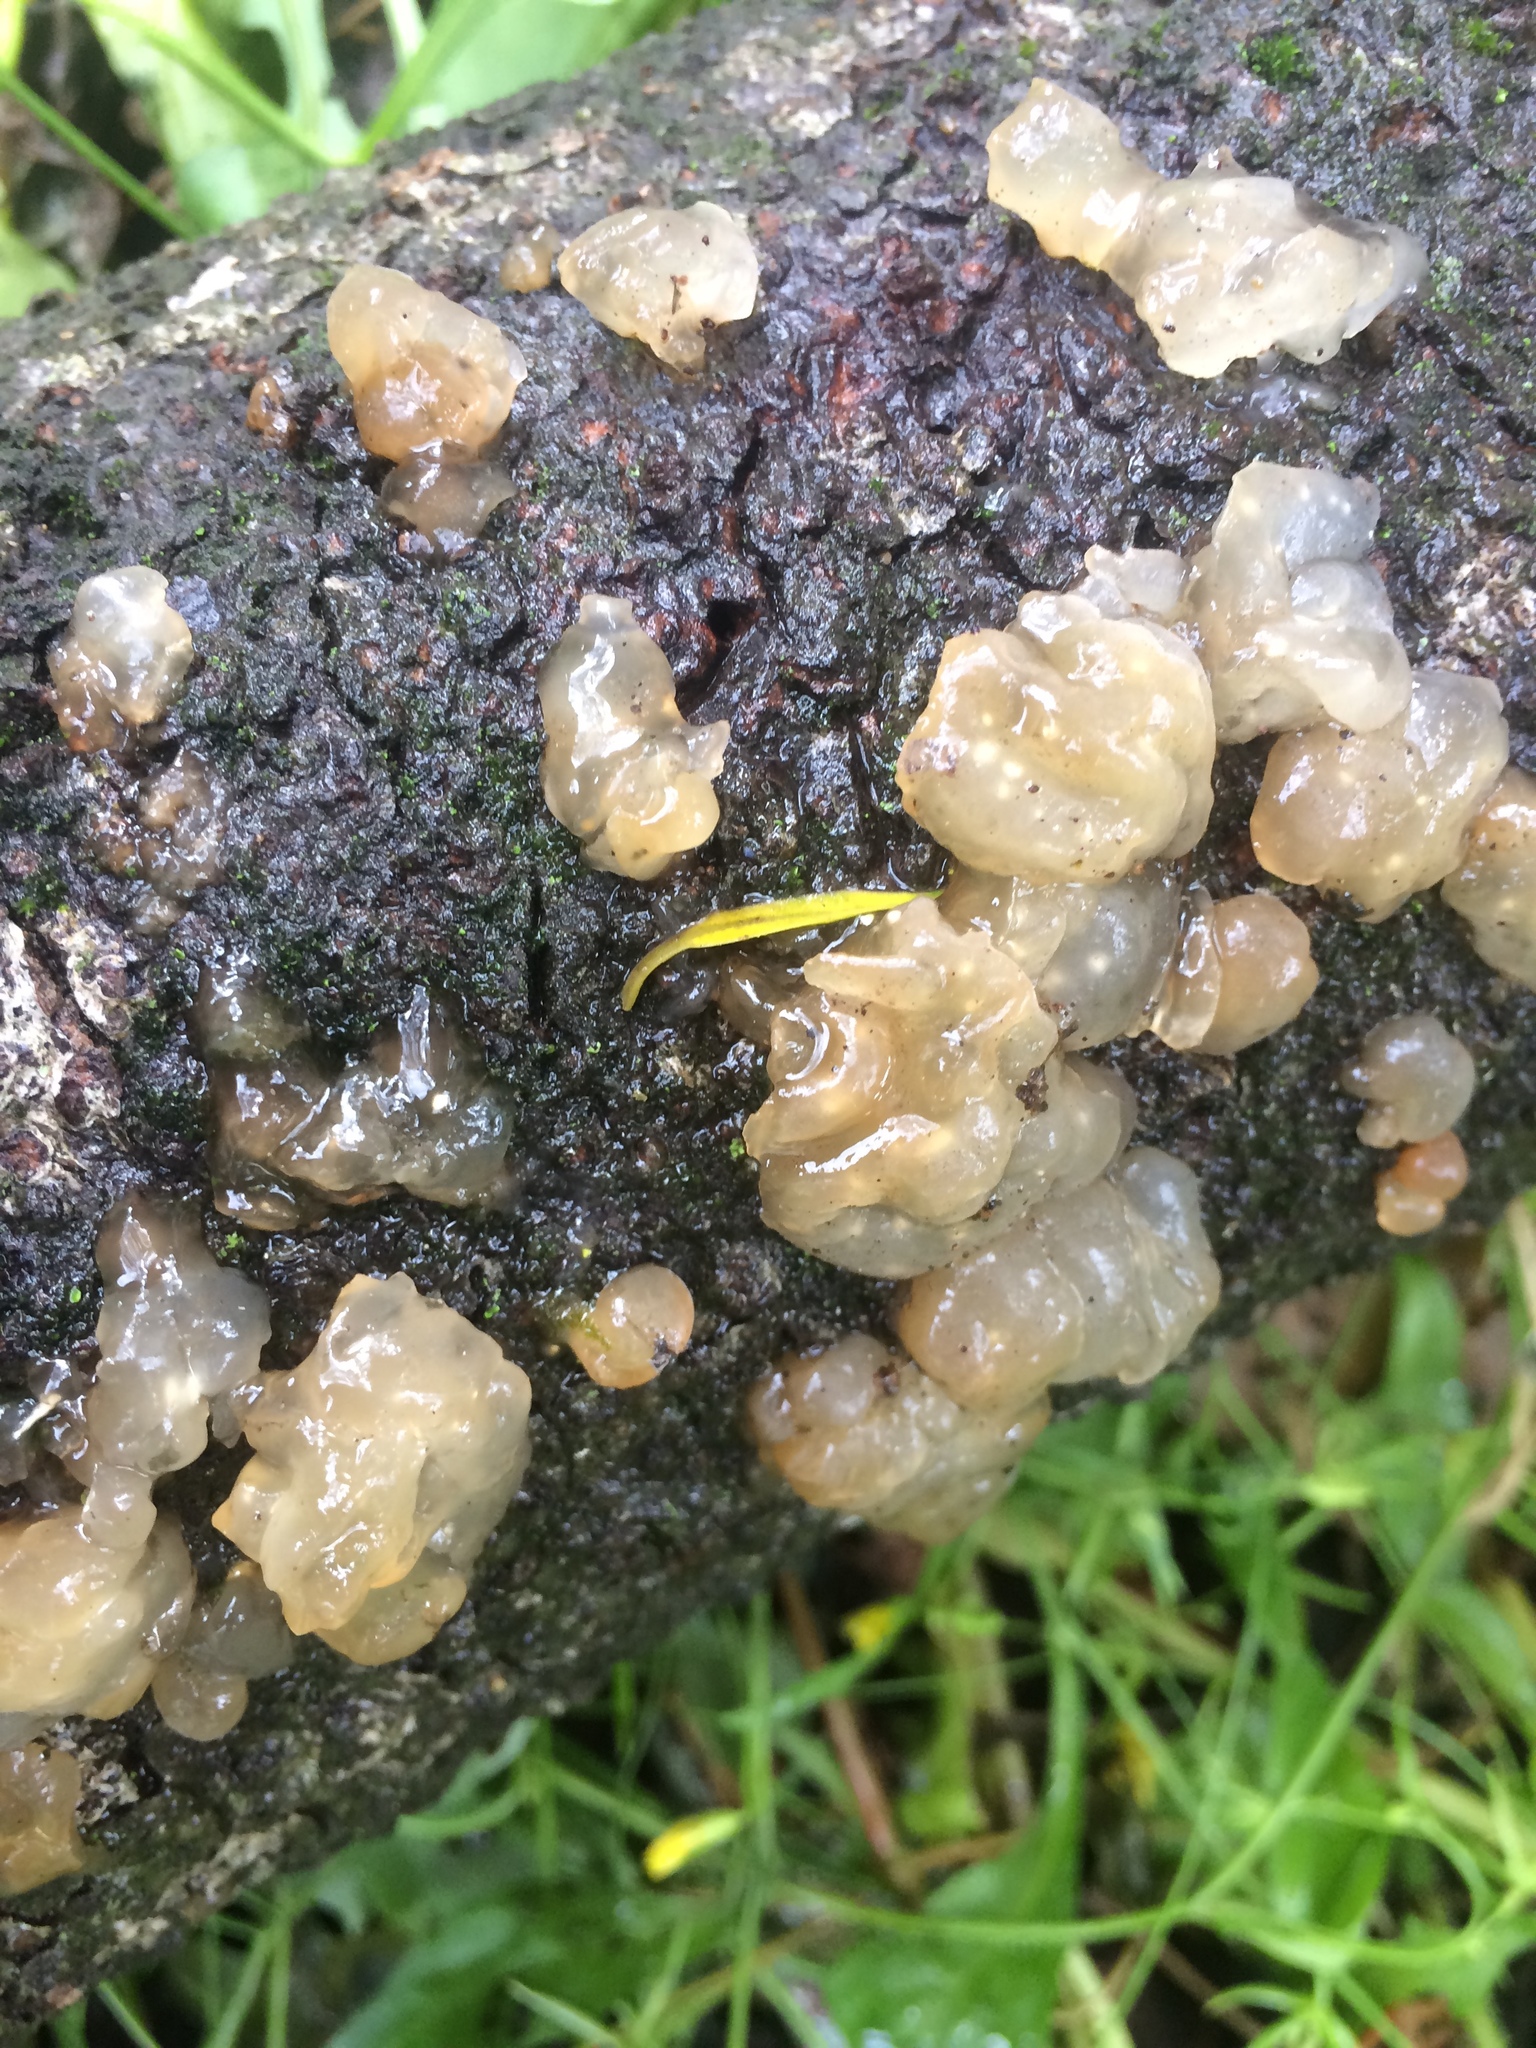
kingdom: Fungi
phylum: Basidiomycota
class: Agaricomycetes
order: Auriculariales
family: Hyaloriaceae
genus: Myxarium
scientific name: Myxarium nucleatum
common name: Crystal brain fungus
